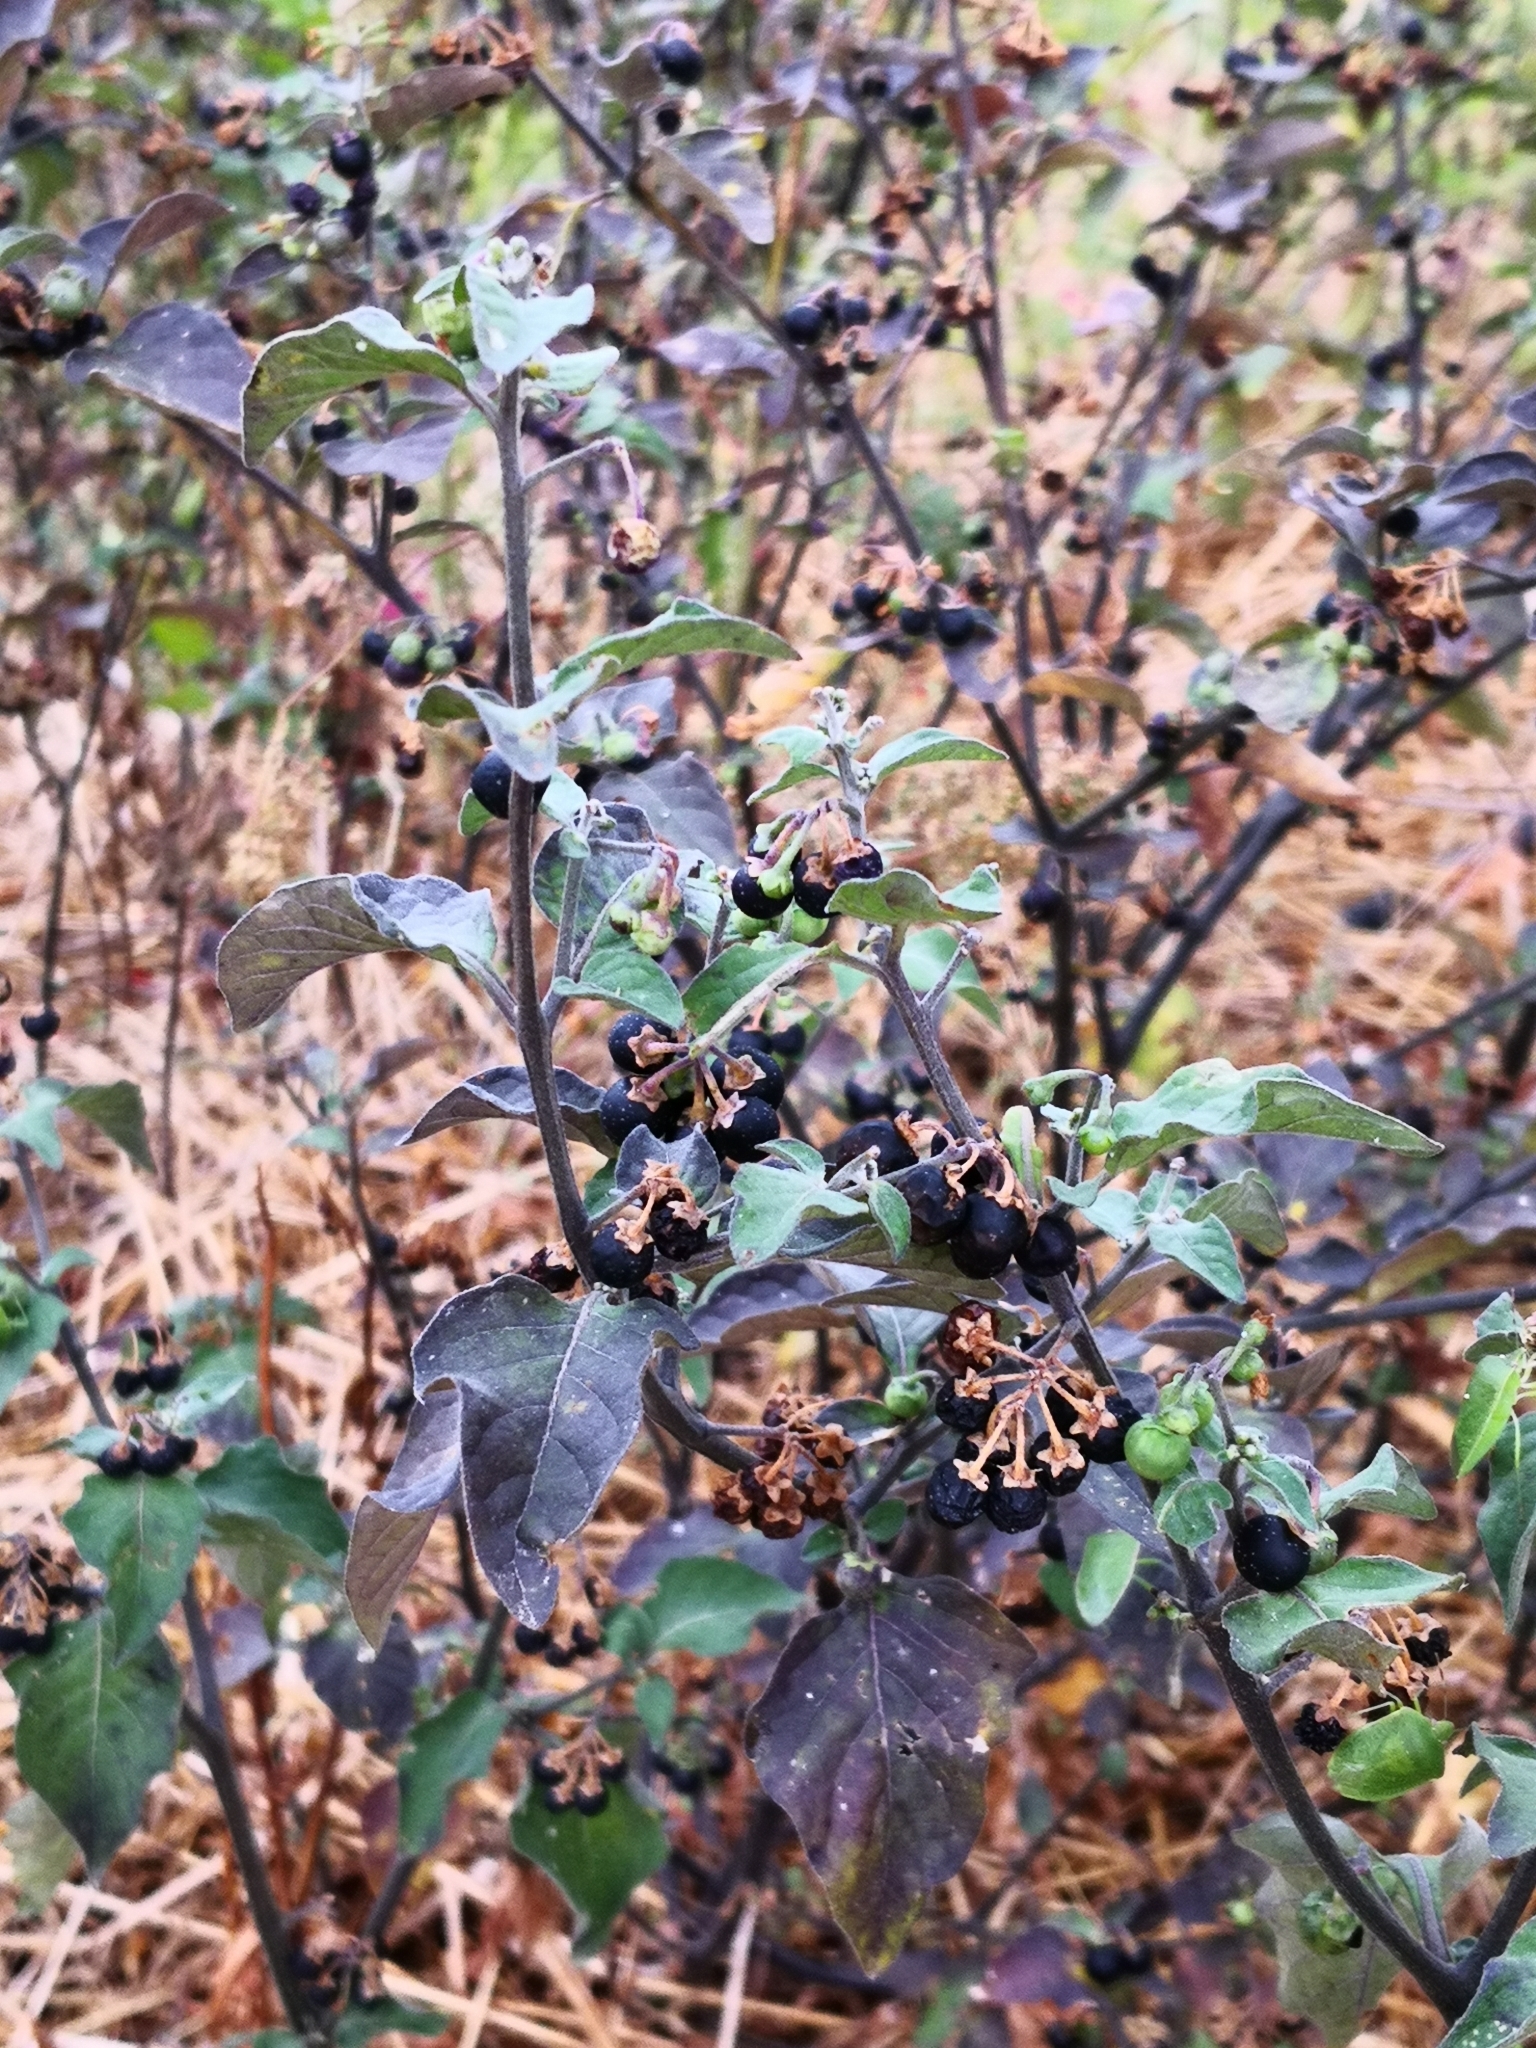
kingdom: Plantae
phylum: Tracheophyta
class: Magnoliopsida
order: Solanales
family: Solanaceae
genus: Solanum
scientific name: Solanum nigrum
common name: Black nightshade
